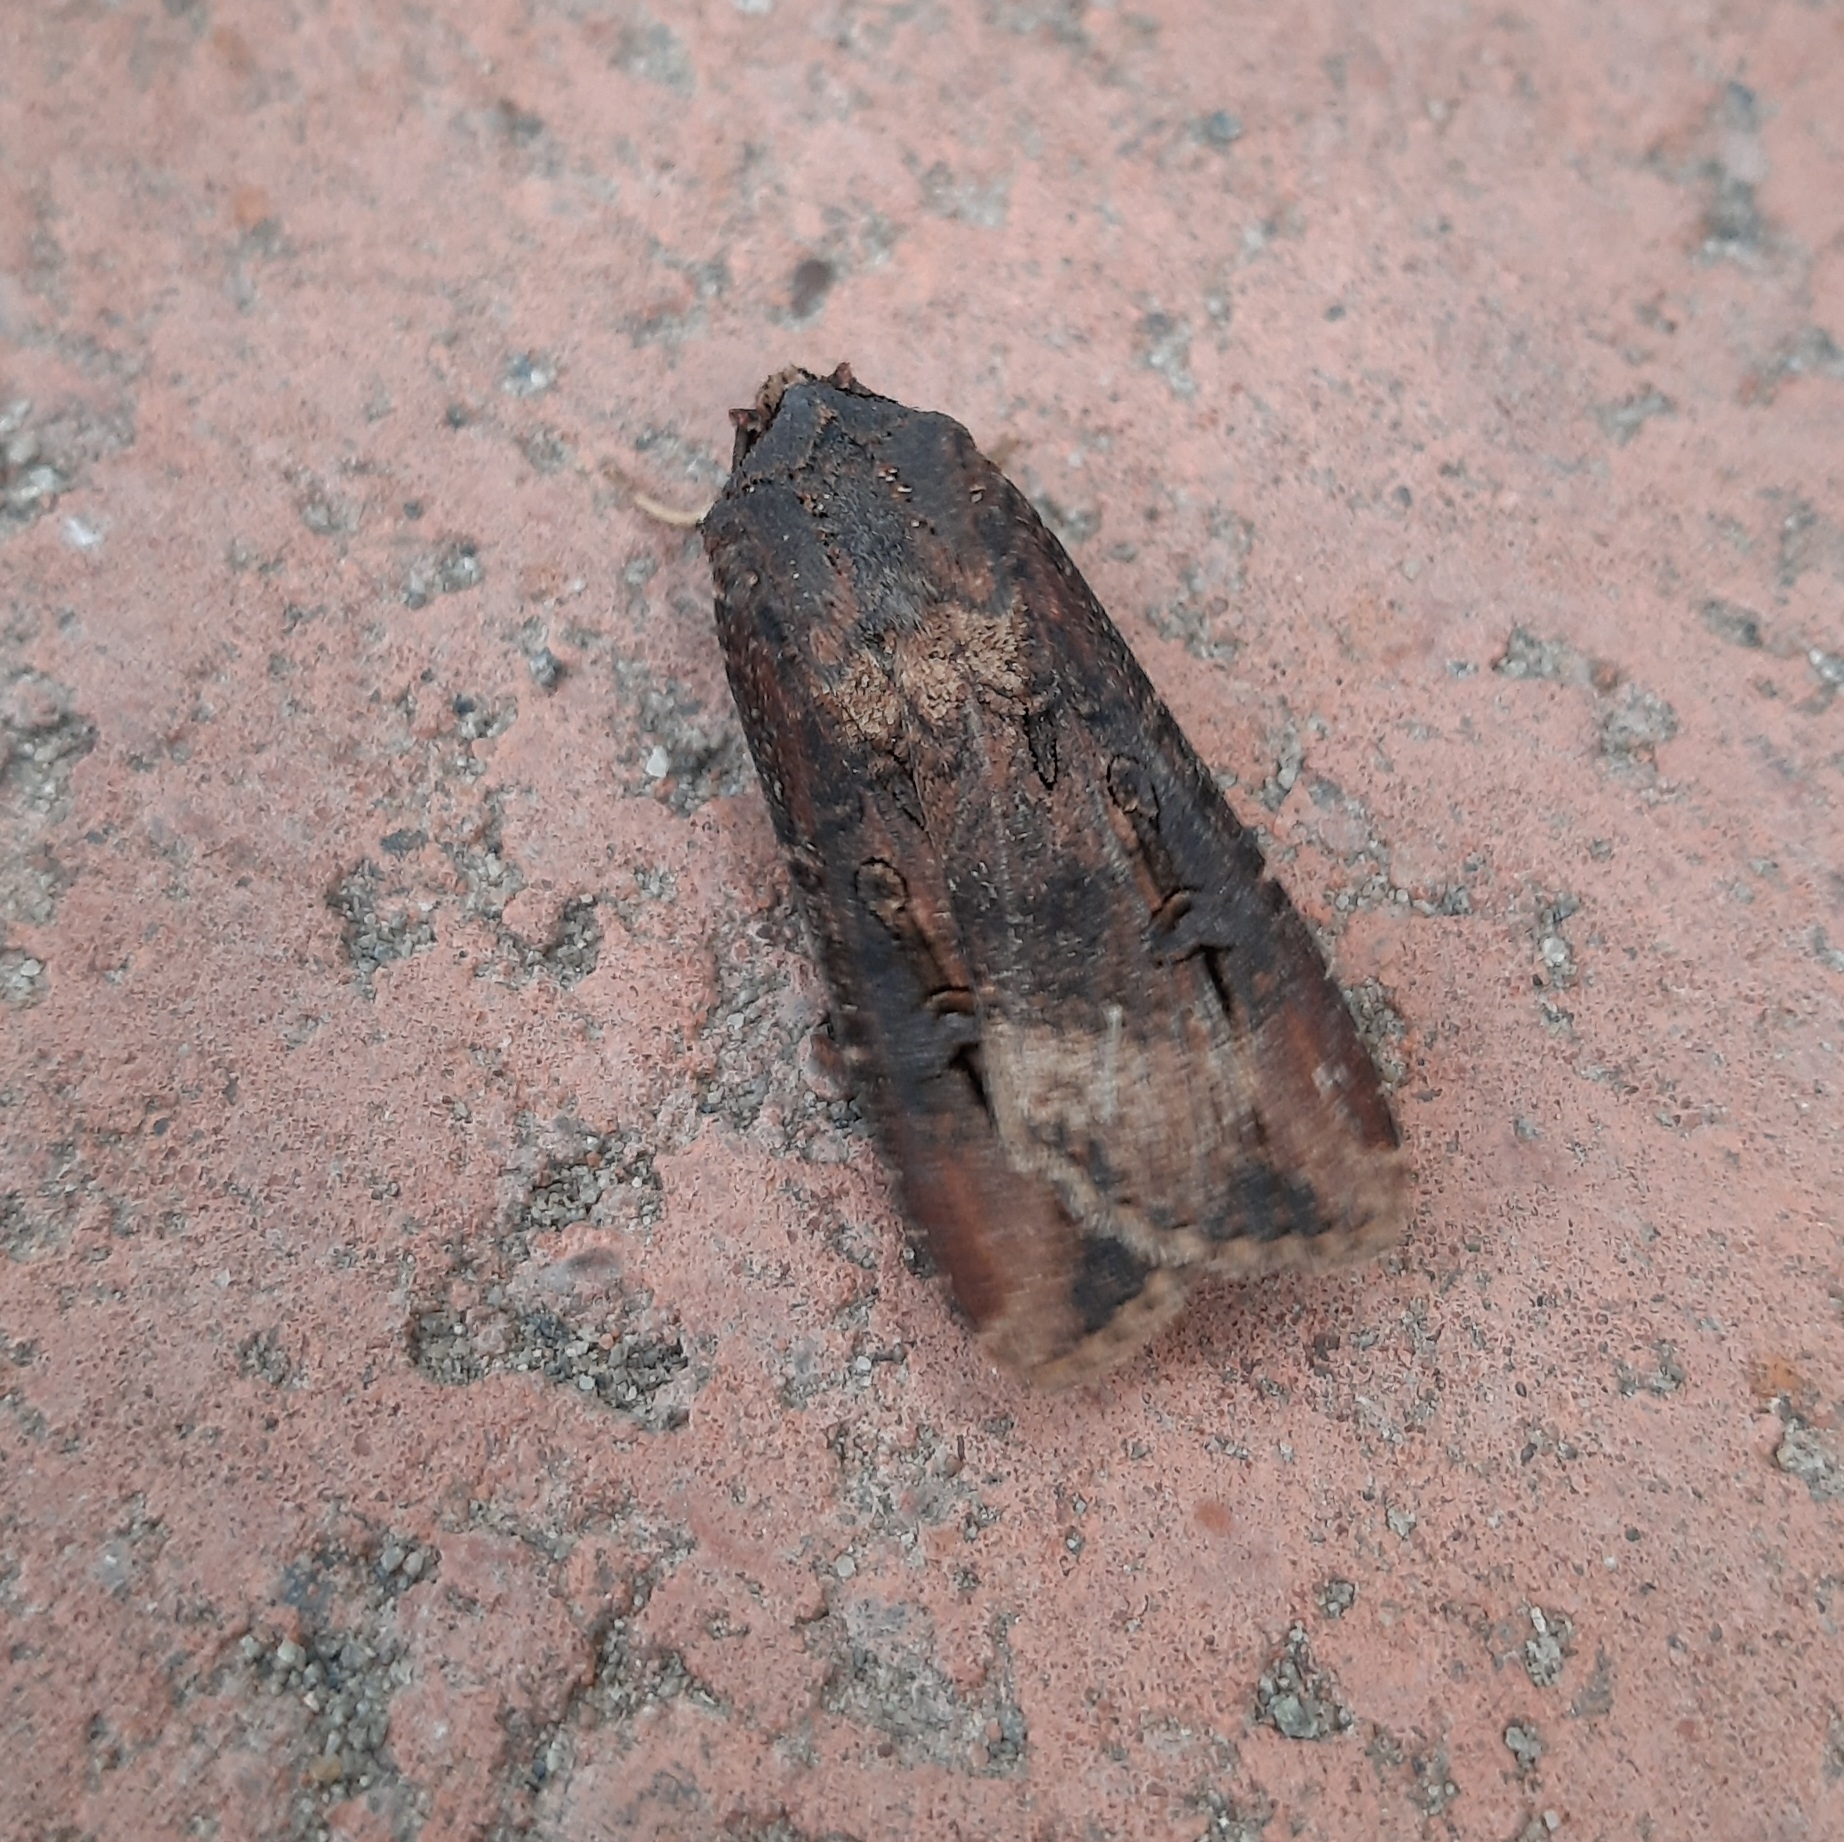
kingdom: Animalia
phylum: Arthropoda
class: Insecta
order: Lepidoptera
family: Noctuidae
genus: Agrotis
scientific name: Agrotis ipsilon
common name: Dark sword-grass
